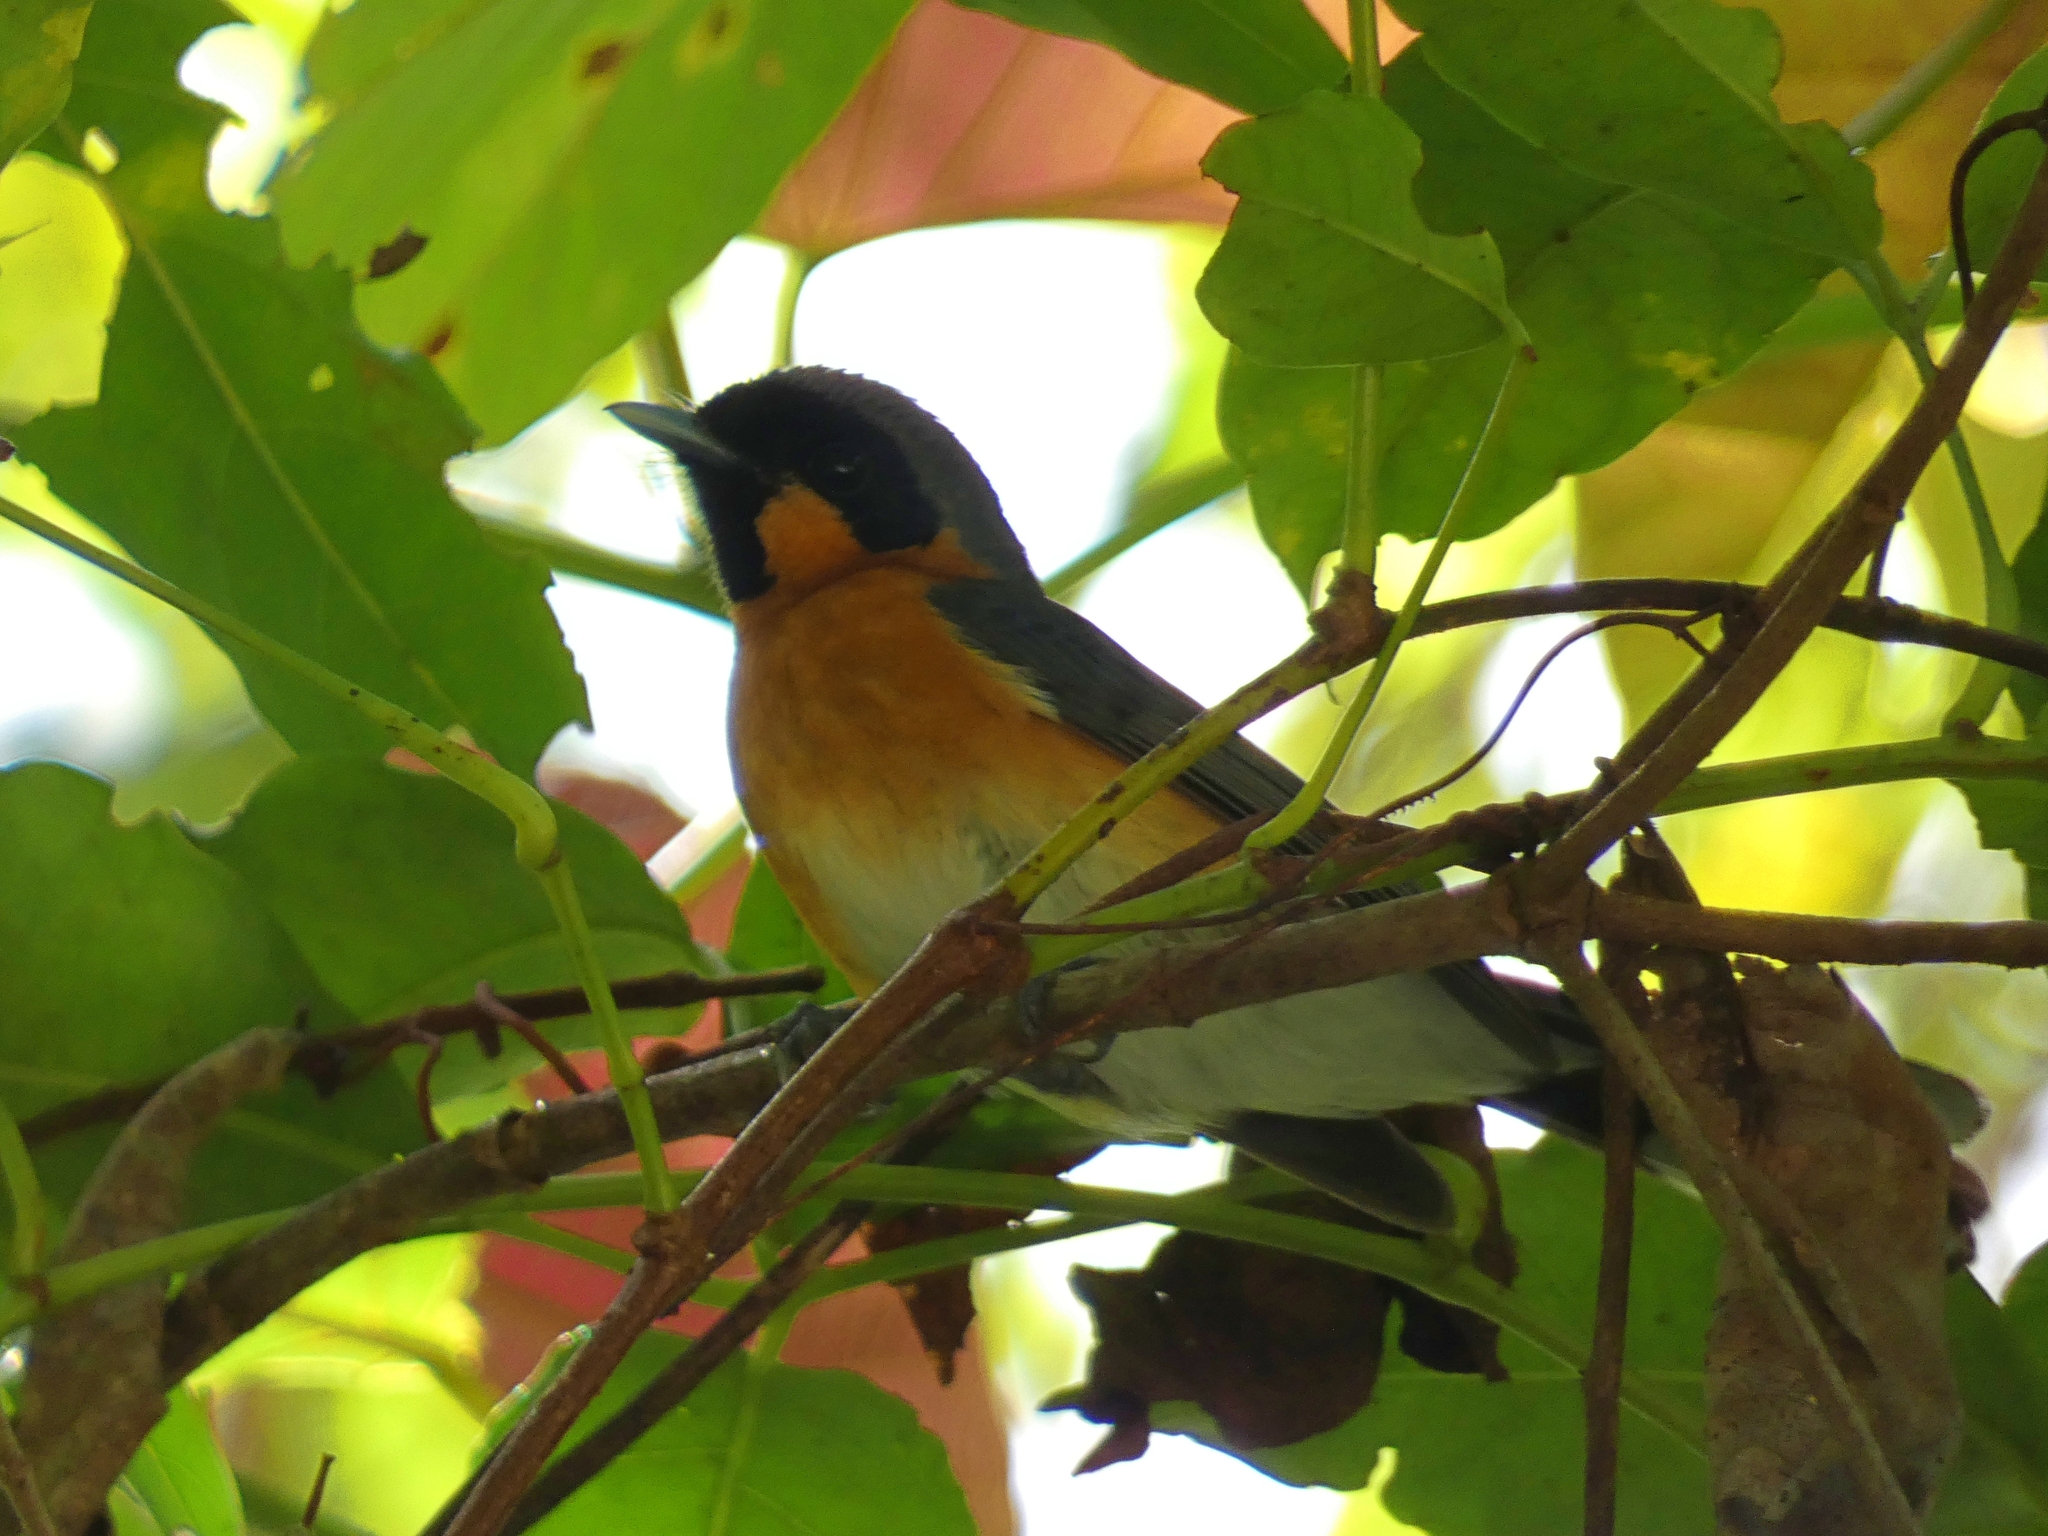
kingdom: Animalia
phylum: Chordata
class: Aves
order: Passeriformes
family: Monarchidae
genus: Symposiachrus
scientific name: Symposiachrus trivirgatus
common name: Spectacled monarch
